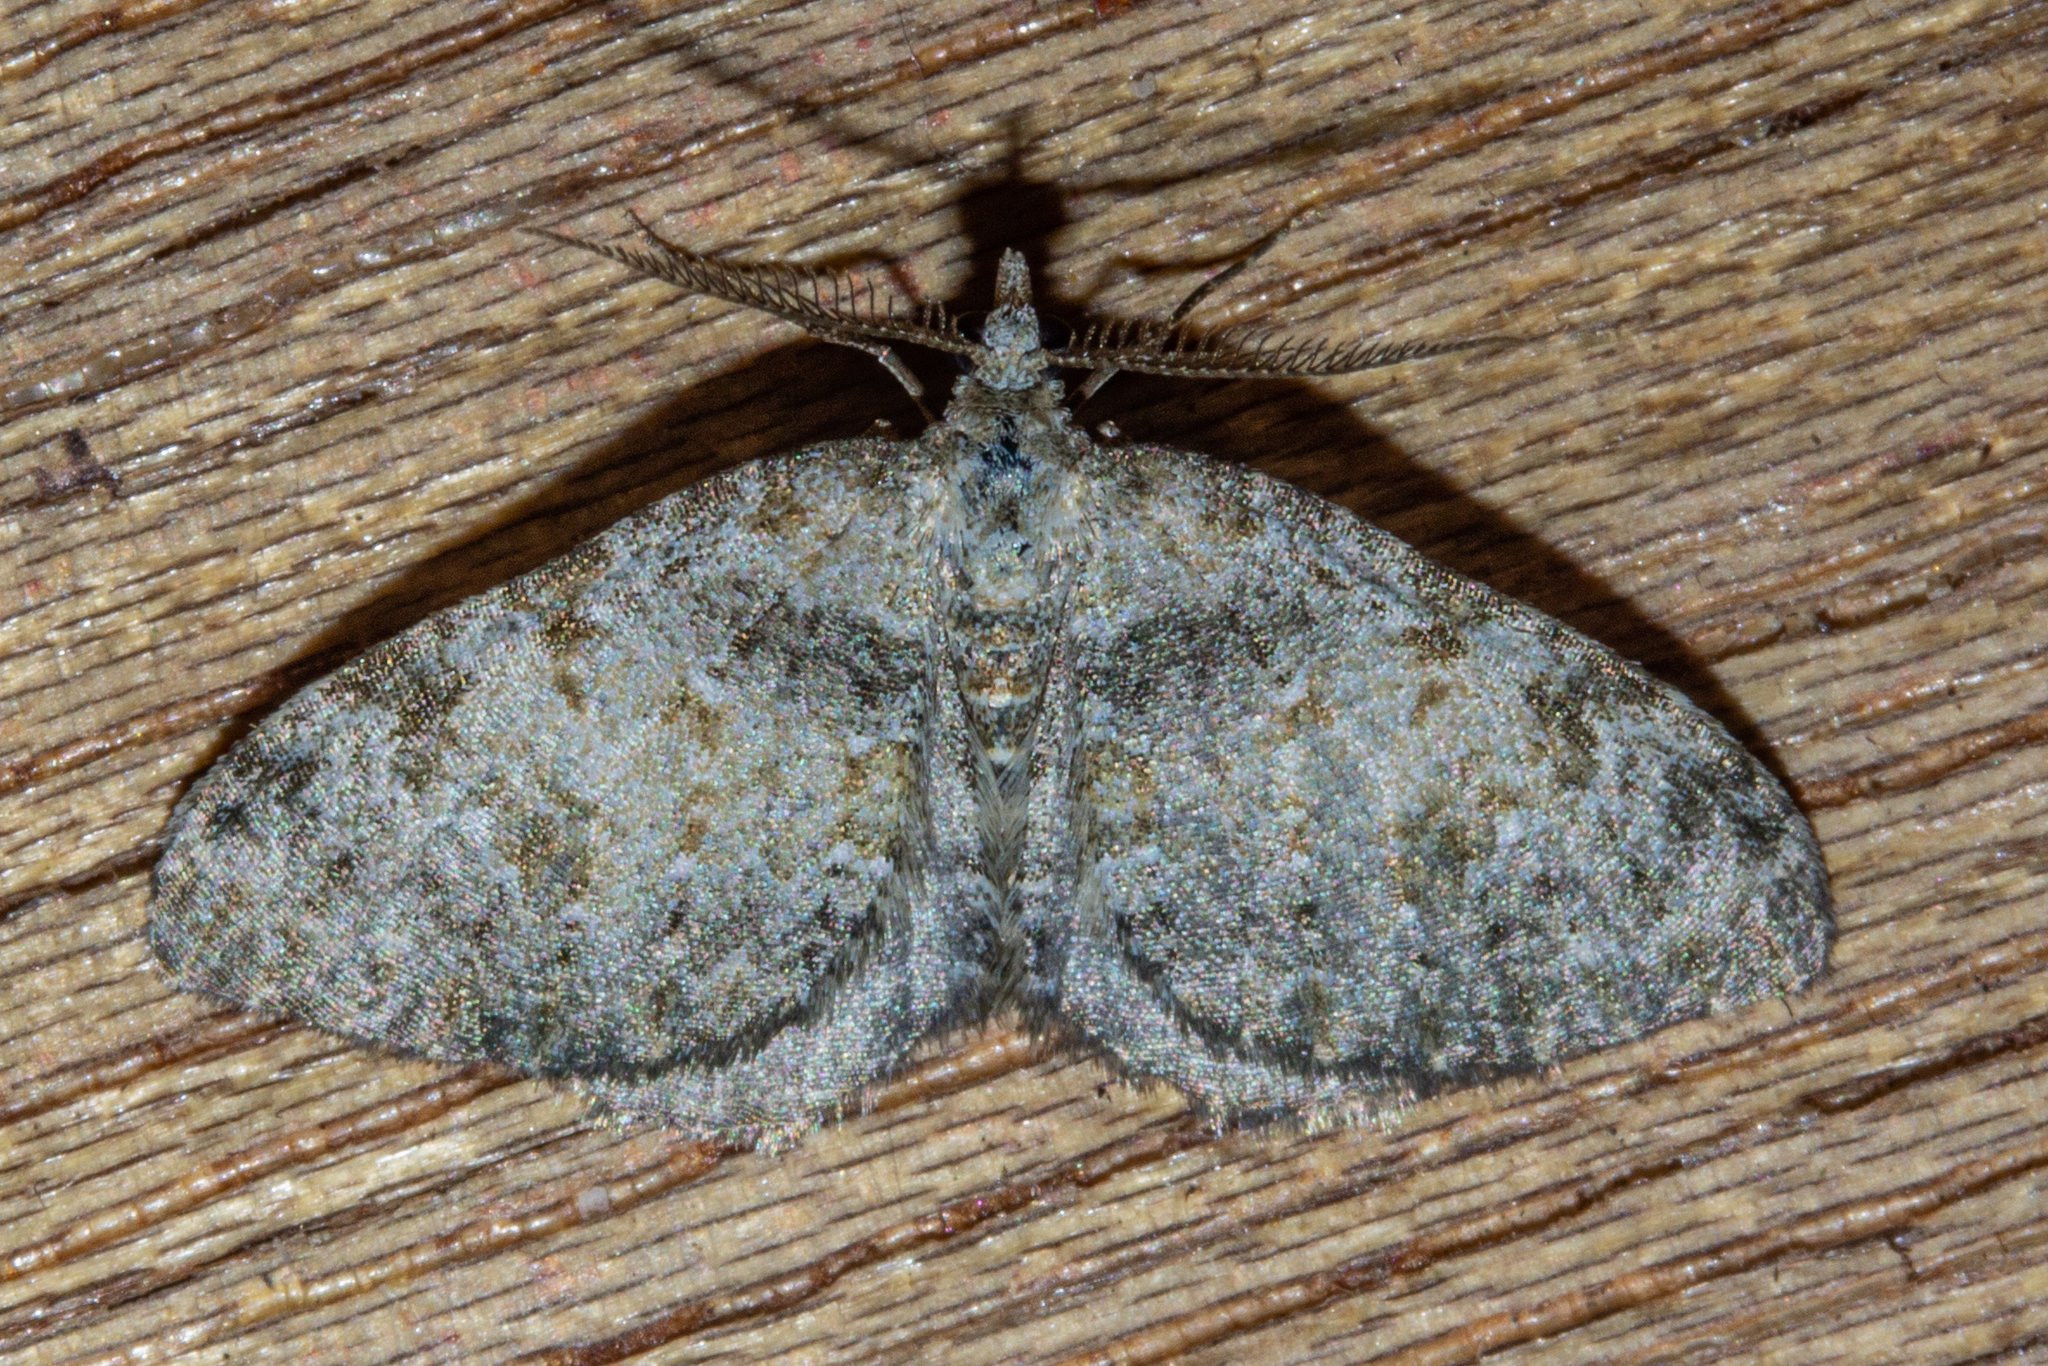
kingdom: Animalia
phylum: Arthropoda
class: Insecta
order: Lepidoptera
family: Geometridae
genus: Helastia
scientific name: Helastia plumbea
